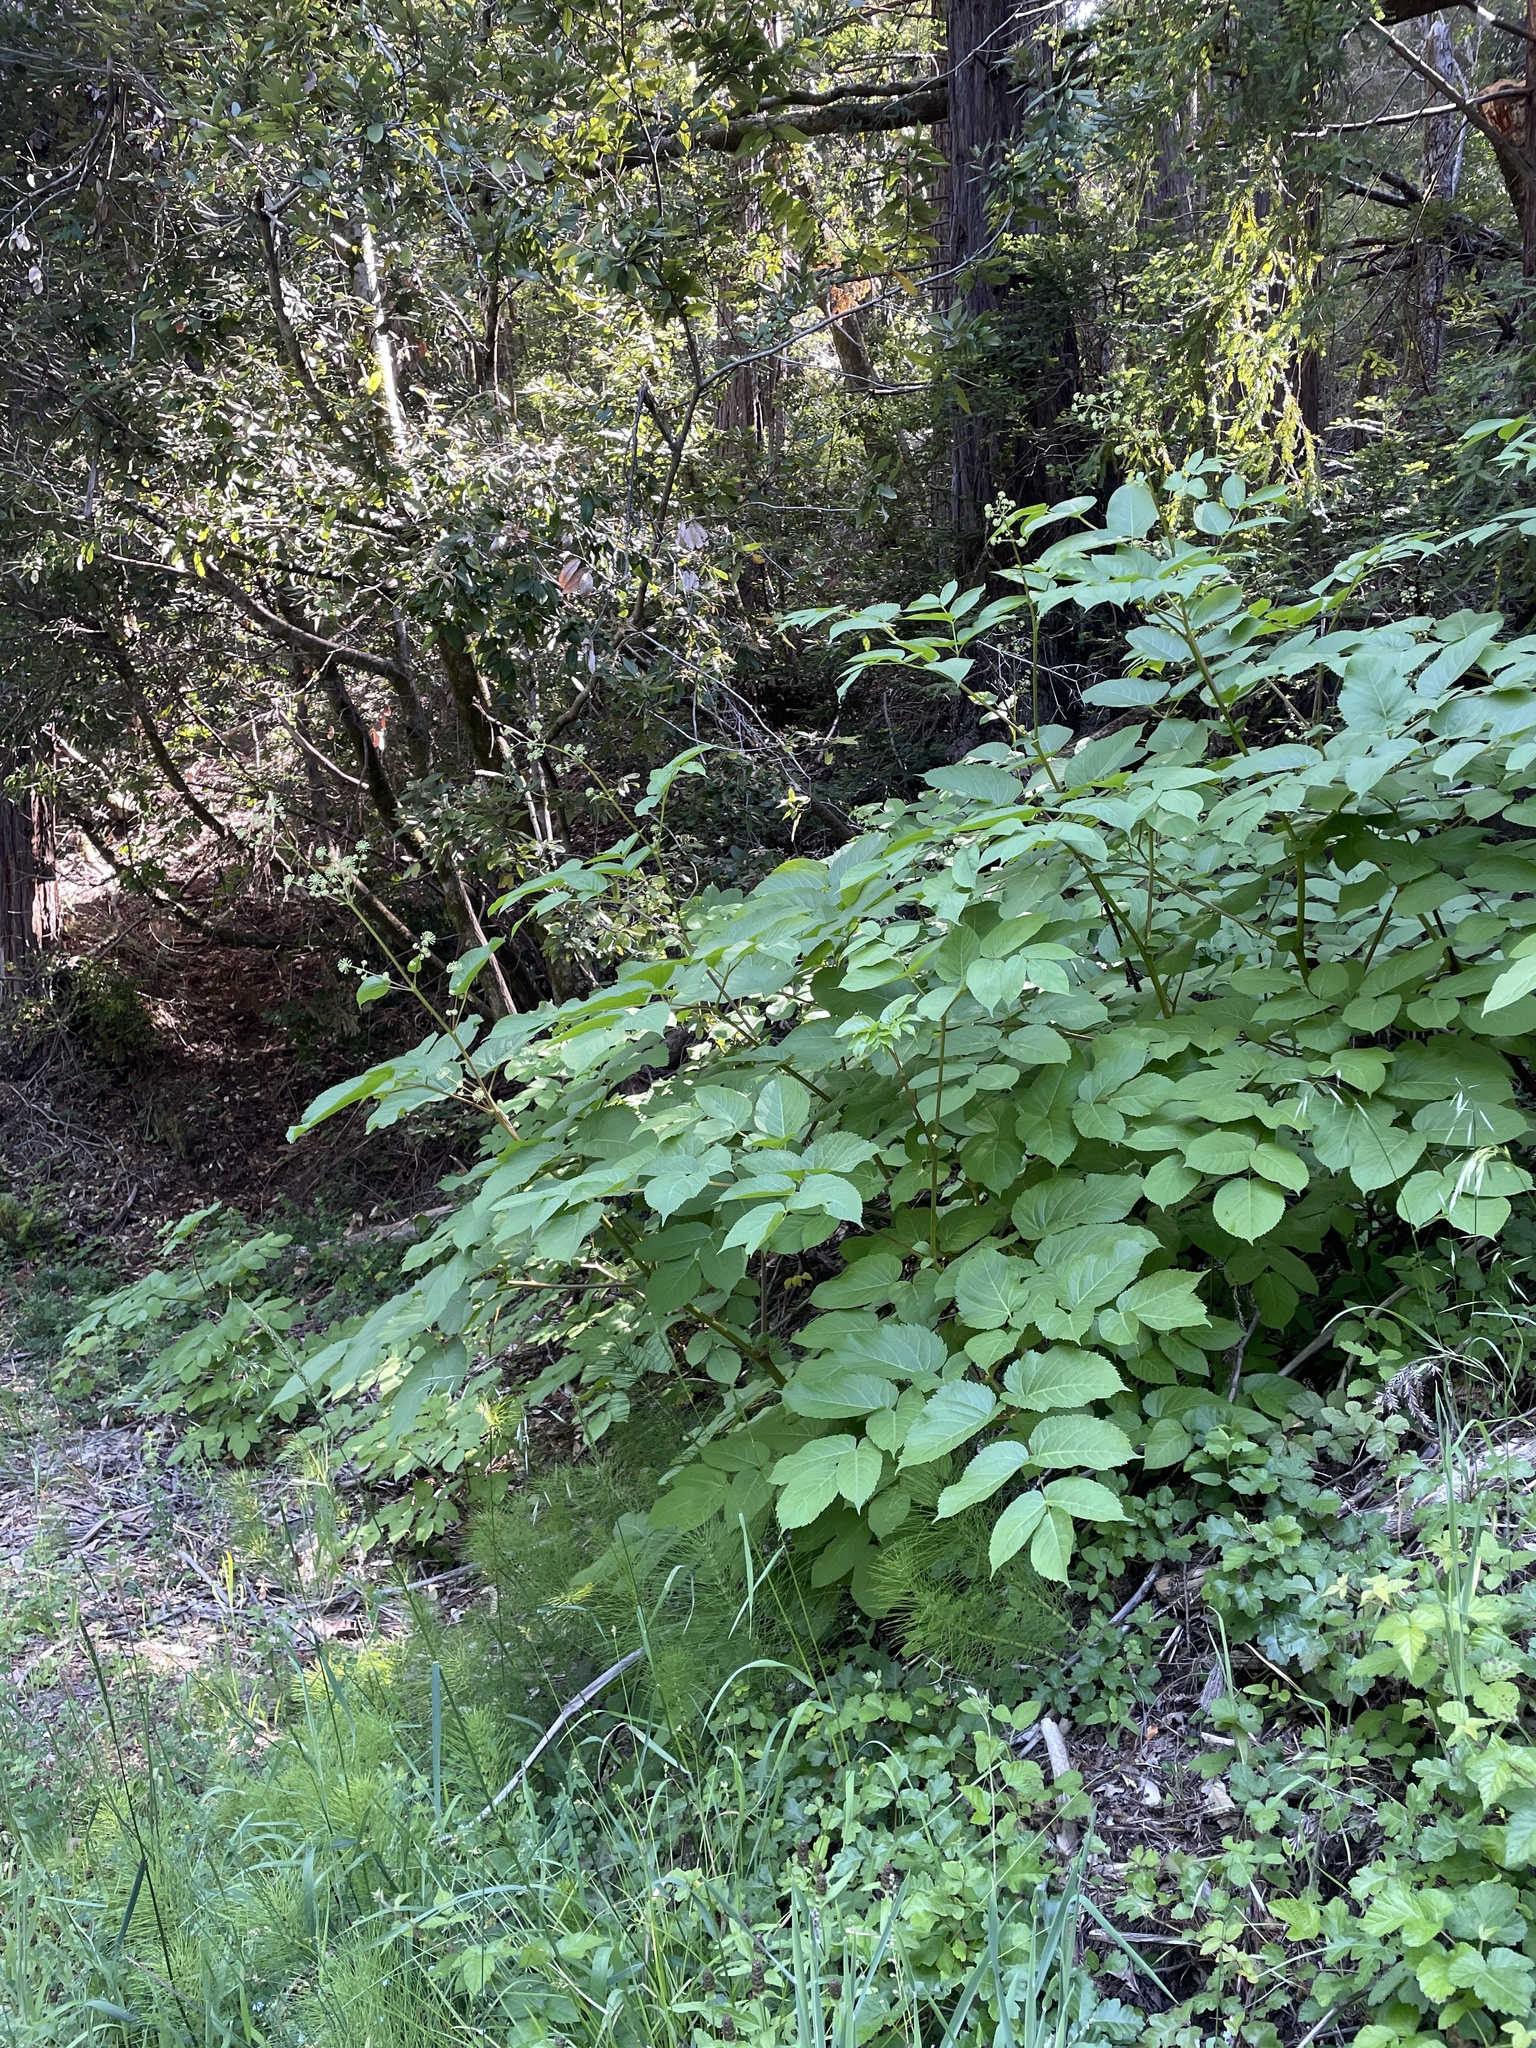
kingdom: Plantae
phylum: Tracheophyta
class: Magnoliopsida
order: Apiales
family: Araliaceae
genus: Aralia
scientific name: Aralia californica
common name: California-ginseng
